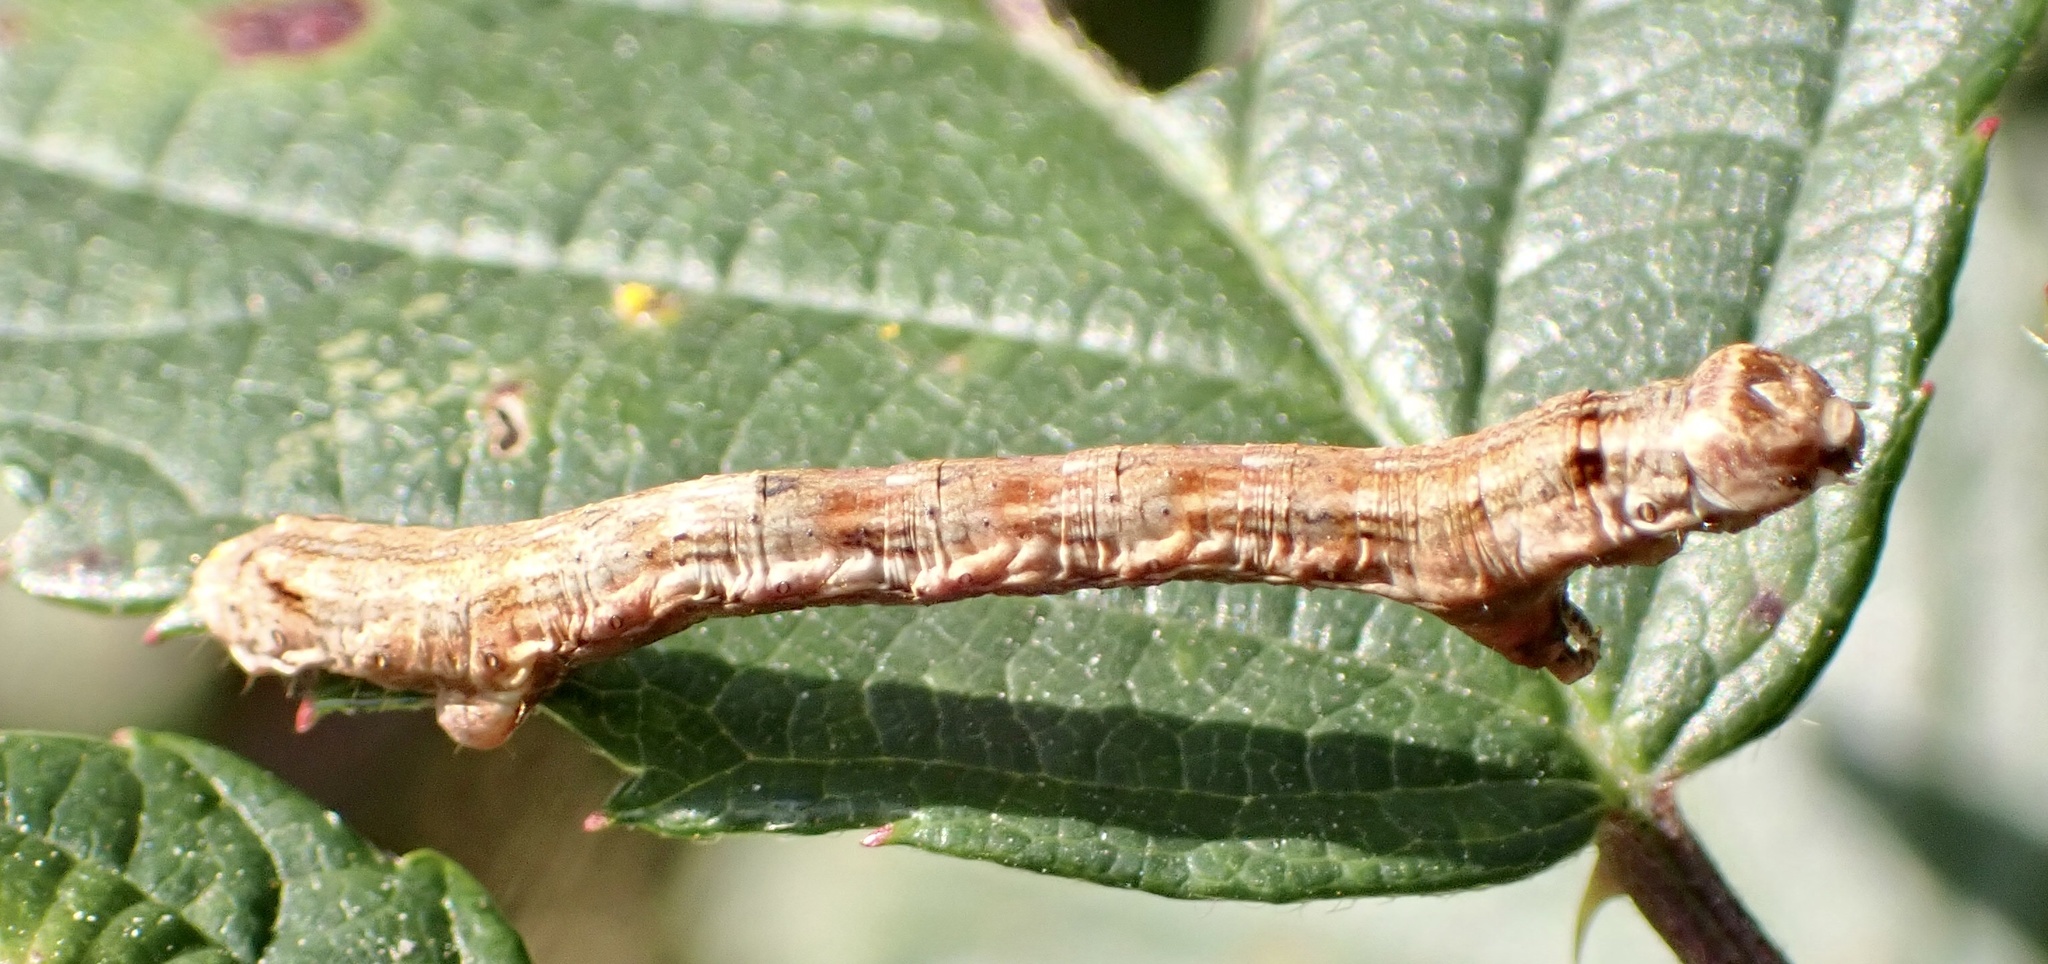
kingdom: Animalia
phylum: Arthropoda
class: Insecta
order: Lepidoptera
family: Geometridae
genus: Ectropis
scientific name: Ectropis crepuscularia
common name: Engrailed
